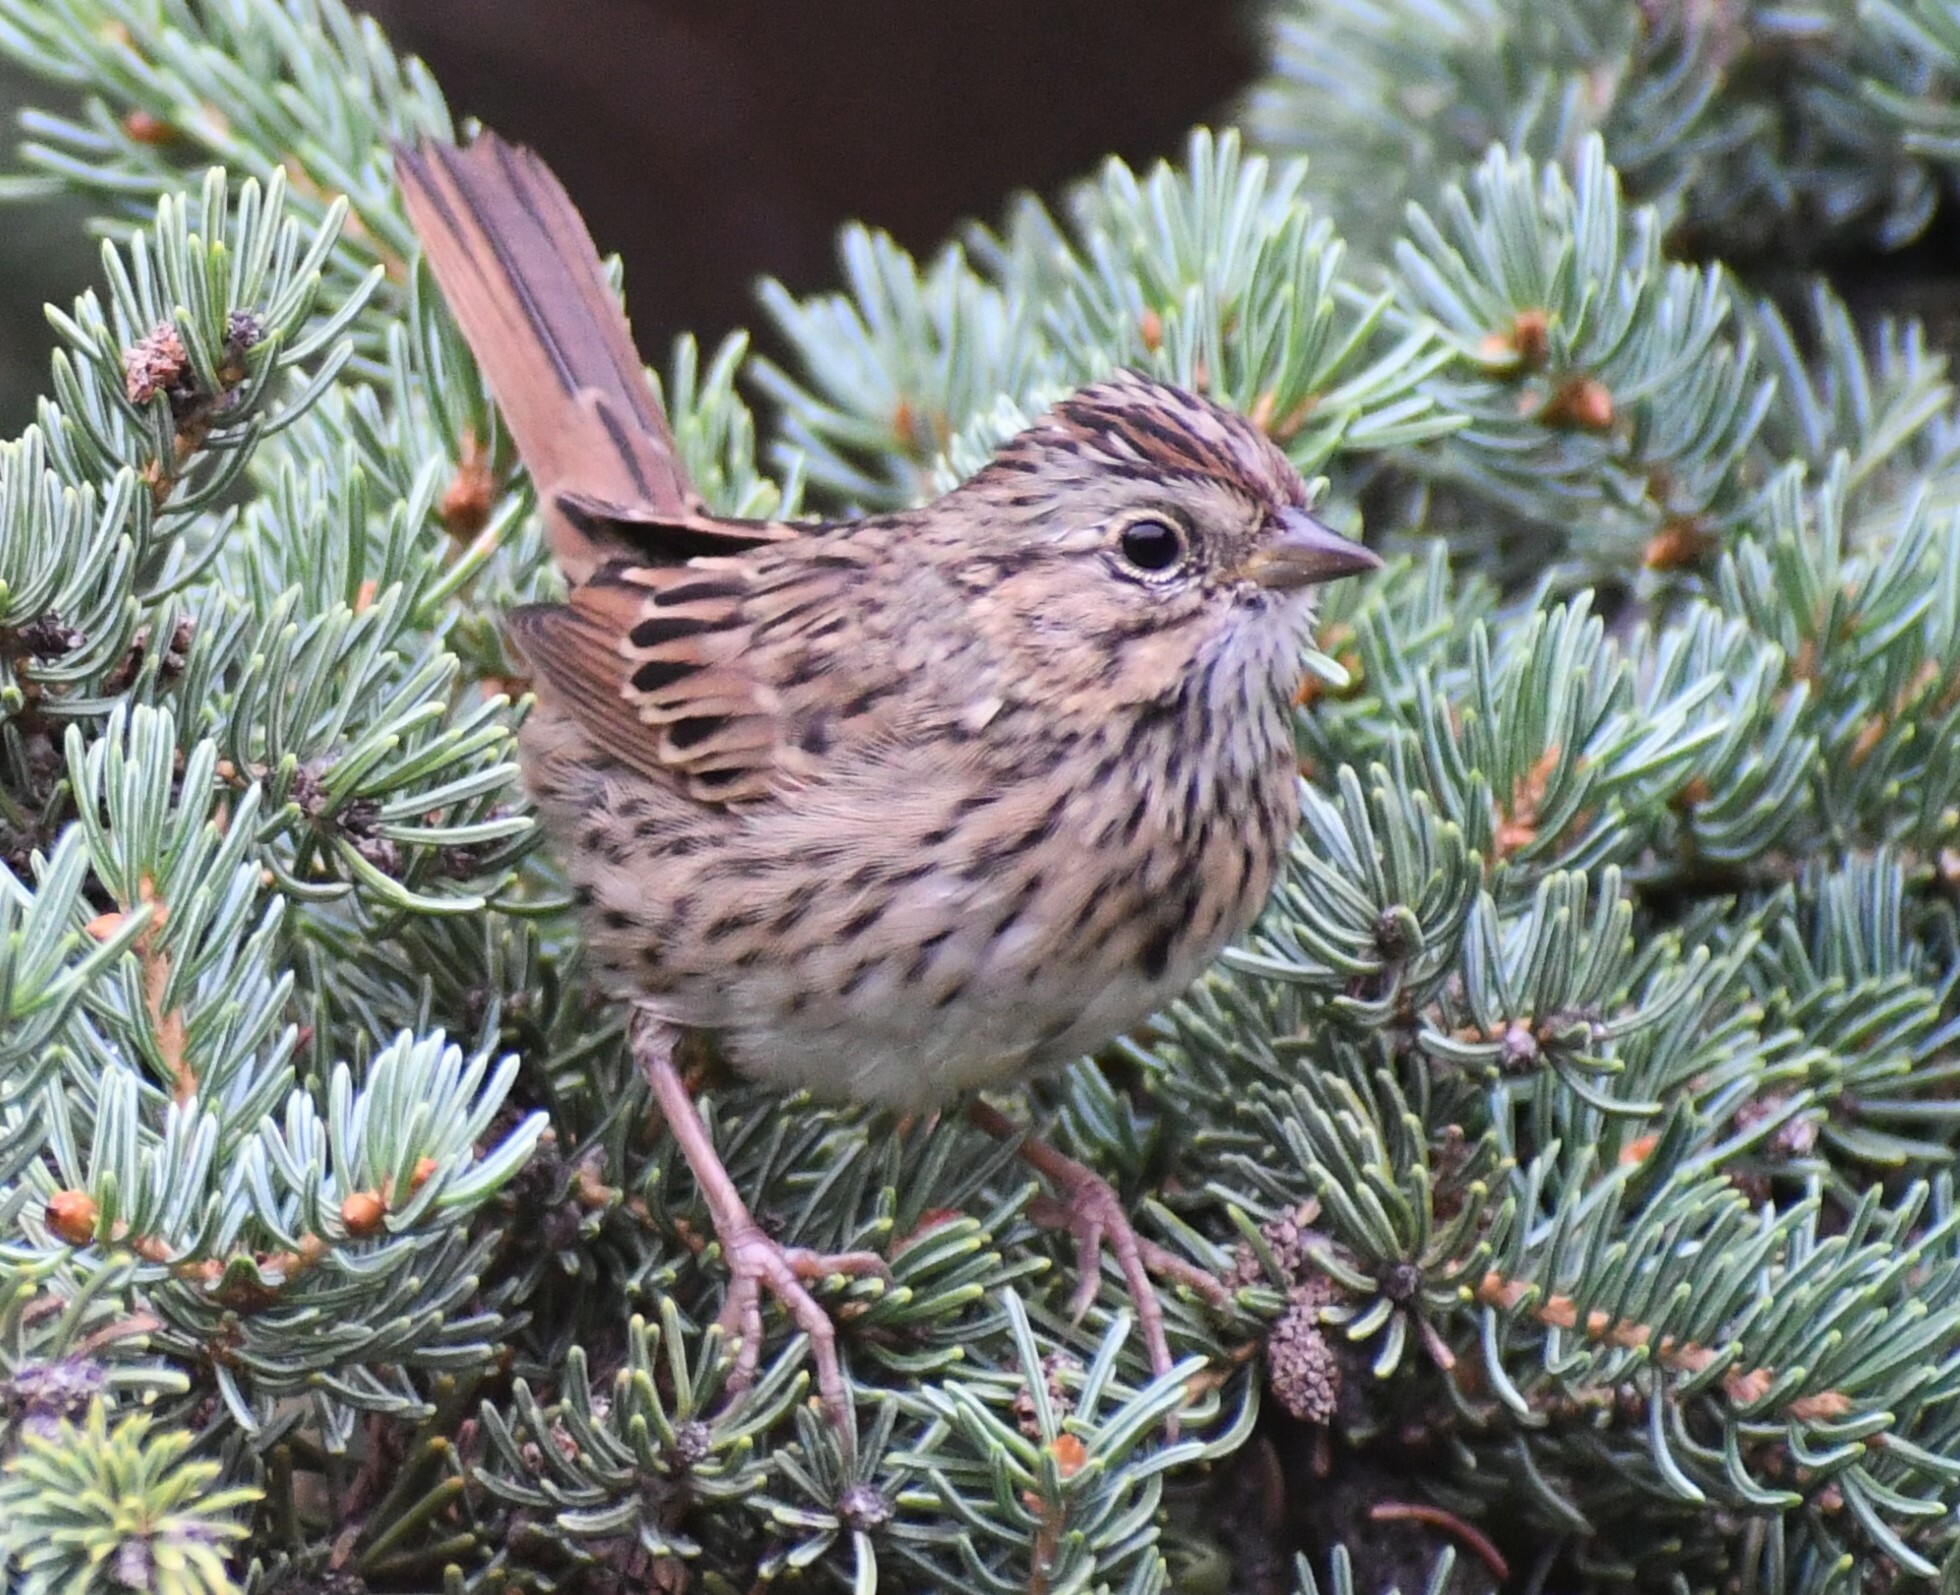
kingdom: Animalia
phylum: Chordata
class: Aves
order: Passeriformes
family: Passerellidae
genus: Melospiza
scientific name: Melospiza lincolnii
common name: Lincoln's sparrow
